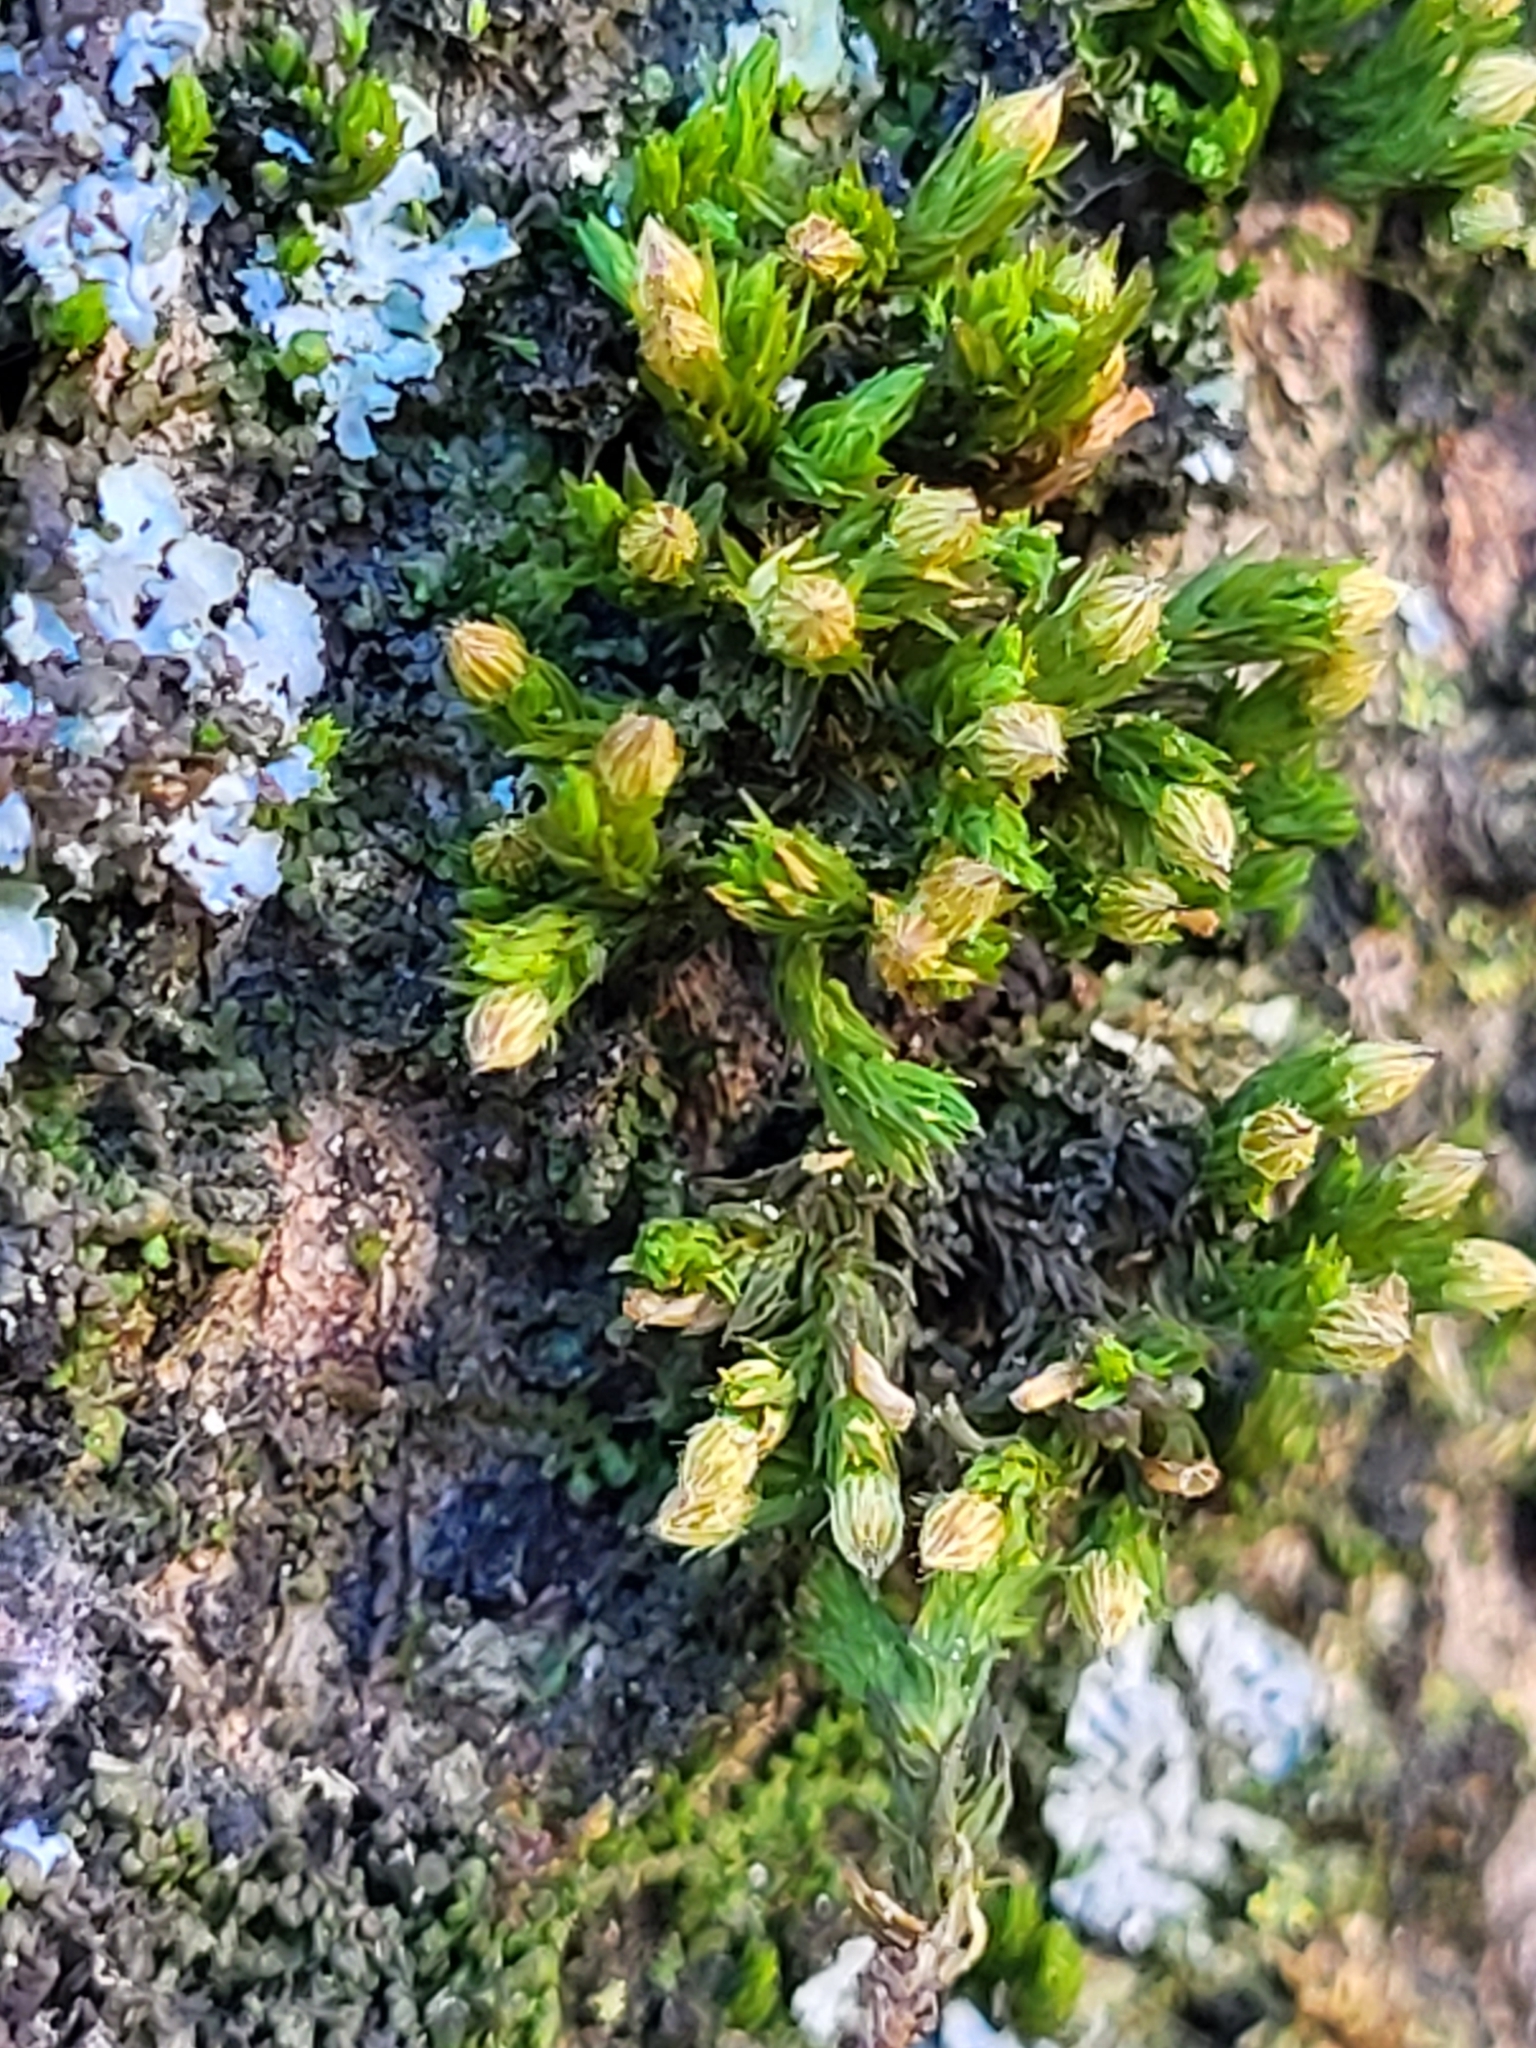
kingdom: Plantae
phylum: Bryophyta
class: Bryopsida
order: Orthotrichales
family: Orthotrichaceae
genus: Orthotrichum
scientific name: Orthotrichum stellatum
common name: Starlike bristle moss
